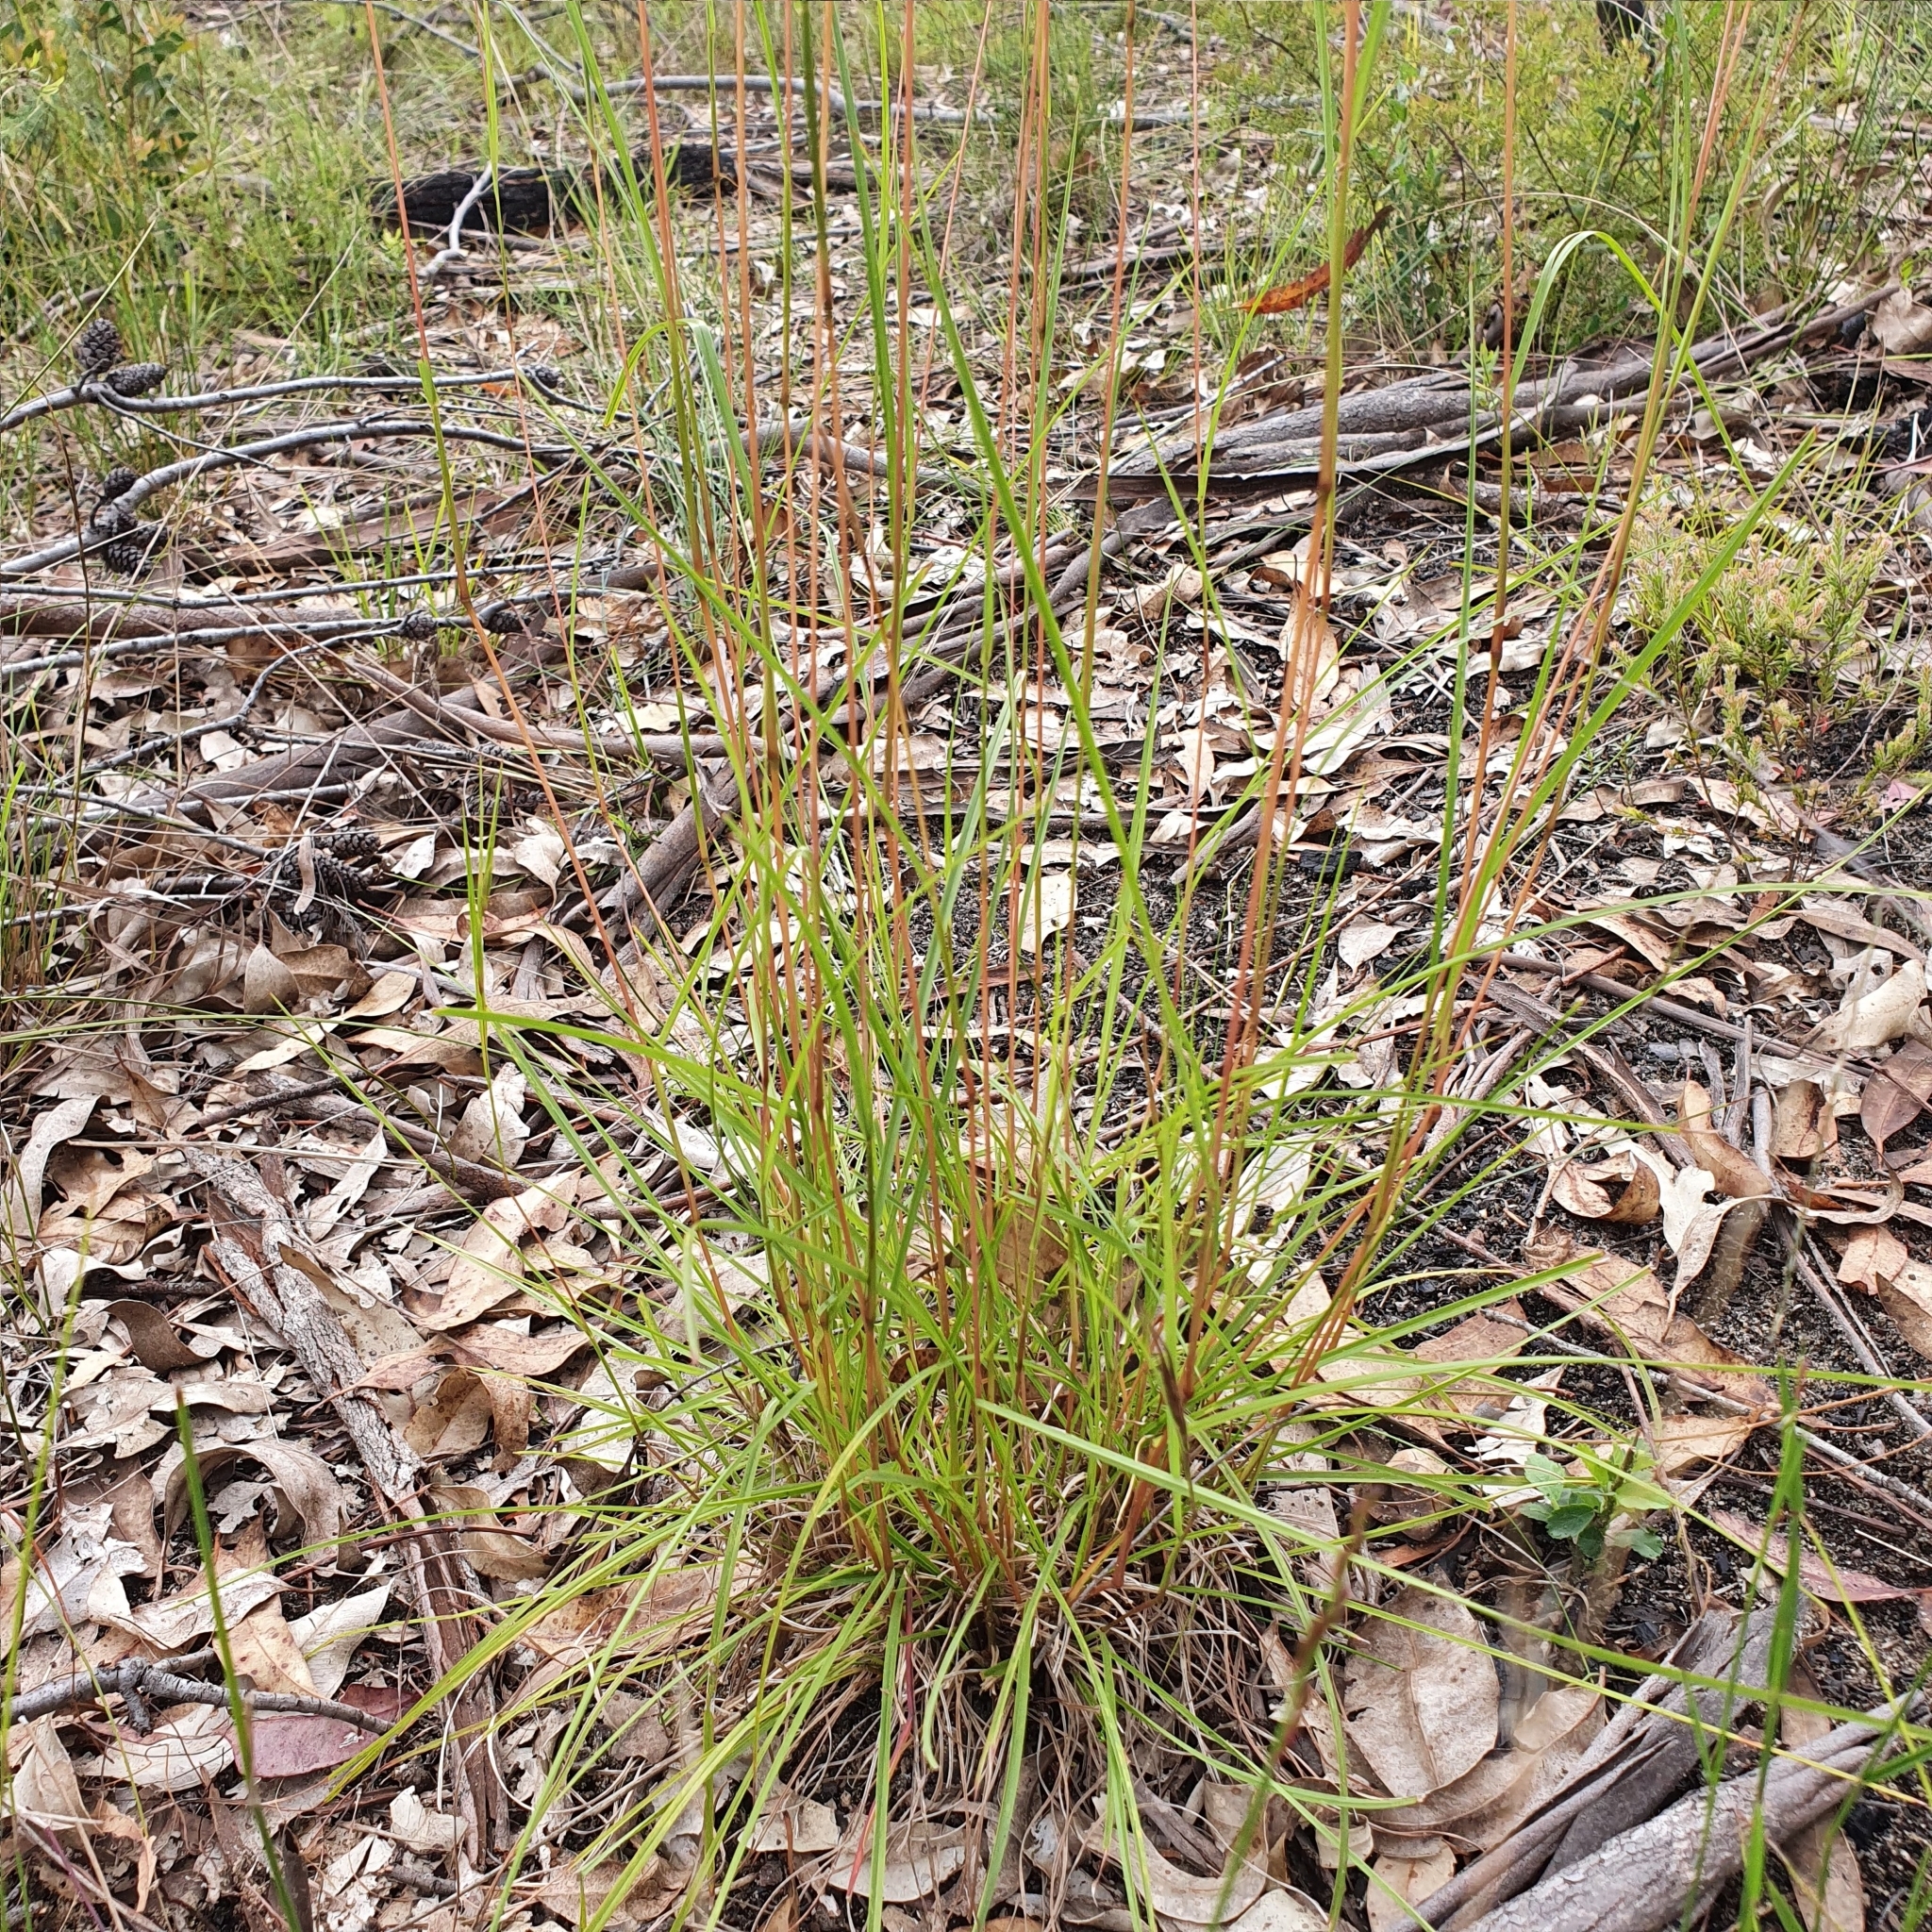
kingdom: Plantae
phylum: Tracheophyta
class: Liliopsida
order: Poales
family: Poaceae
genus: Themeda
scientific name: Themeda triandra
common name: Kangaroo grass
